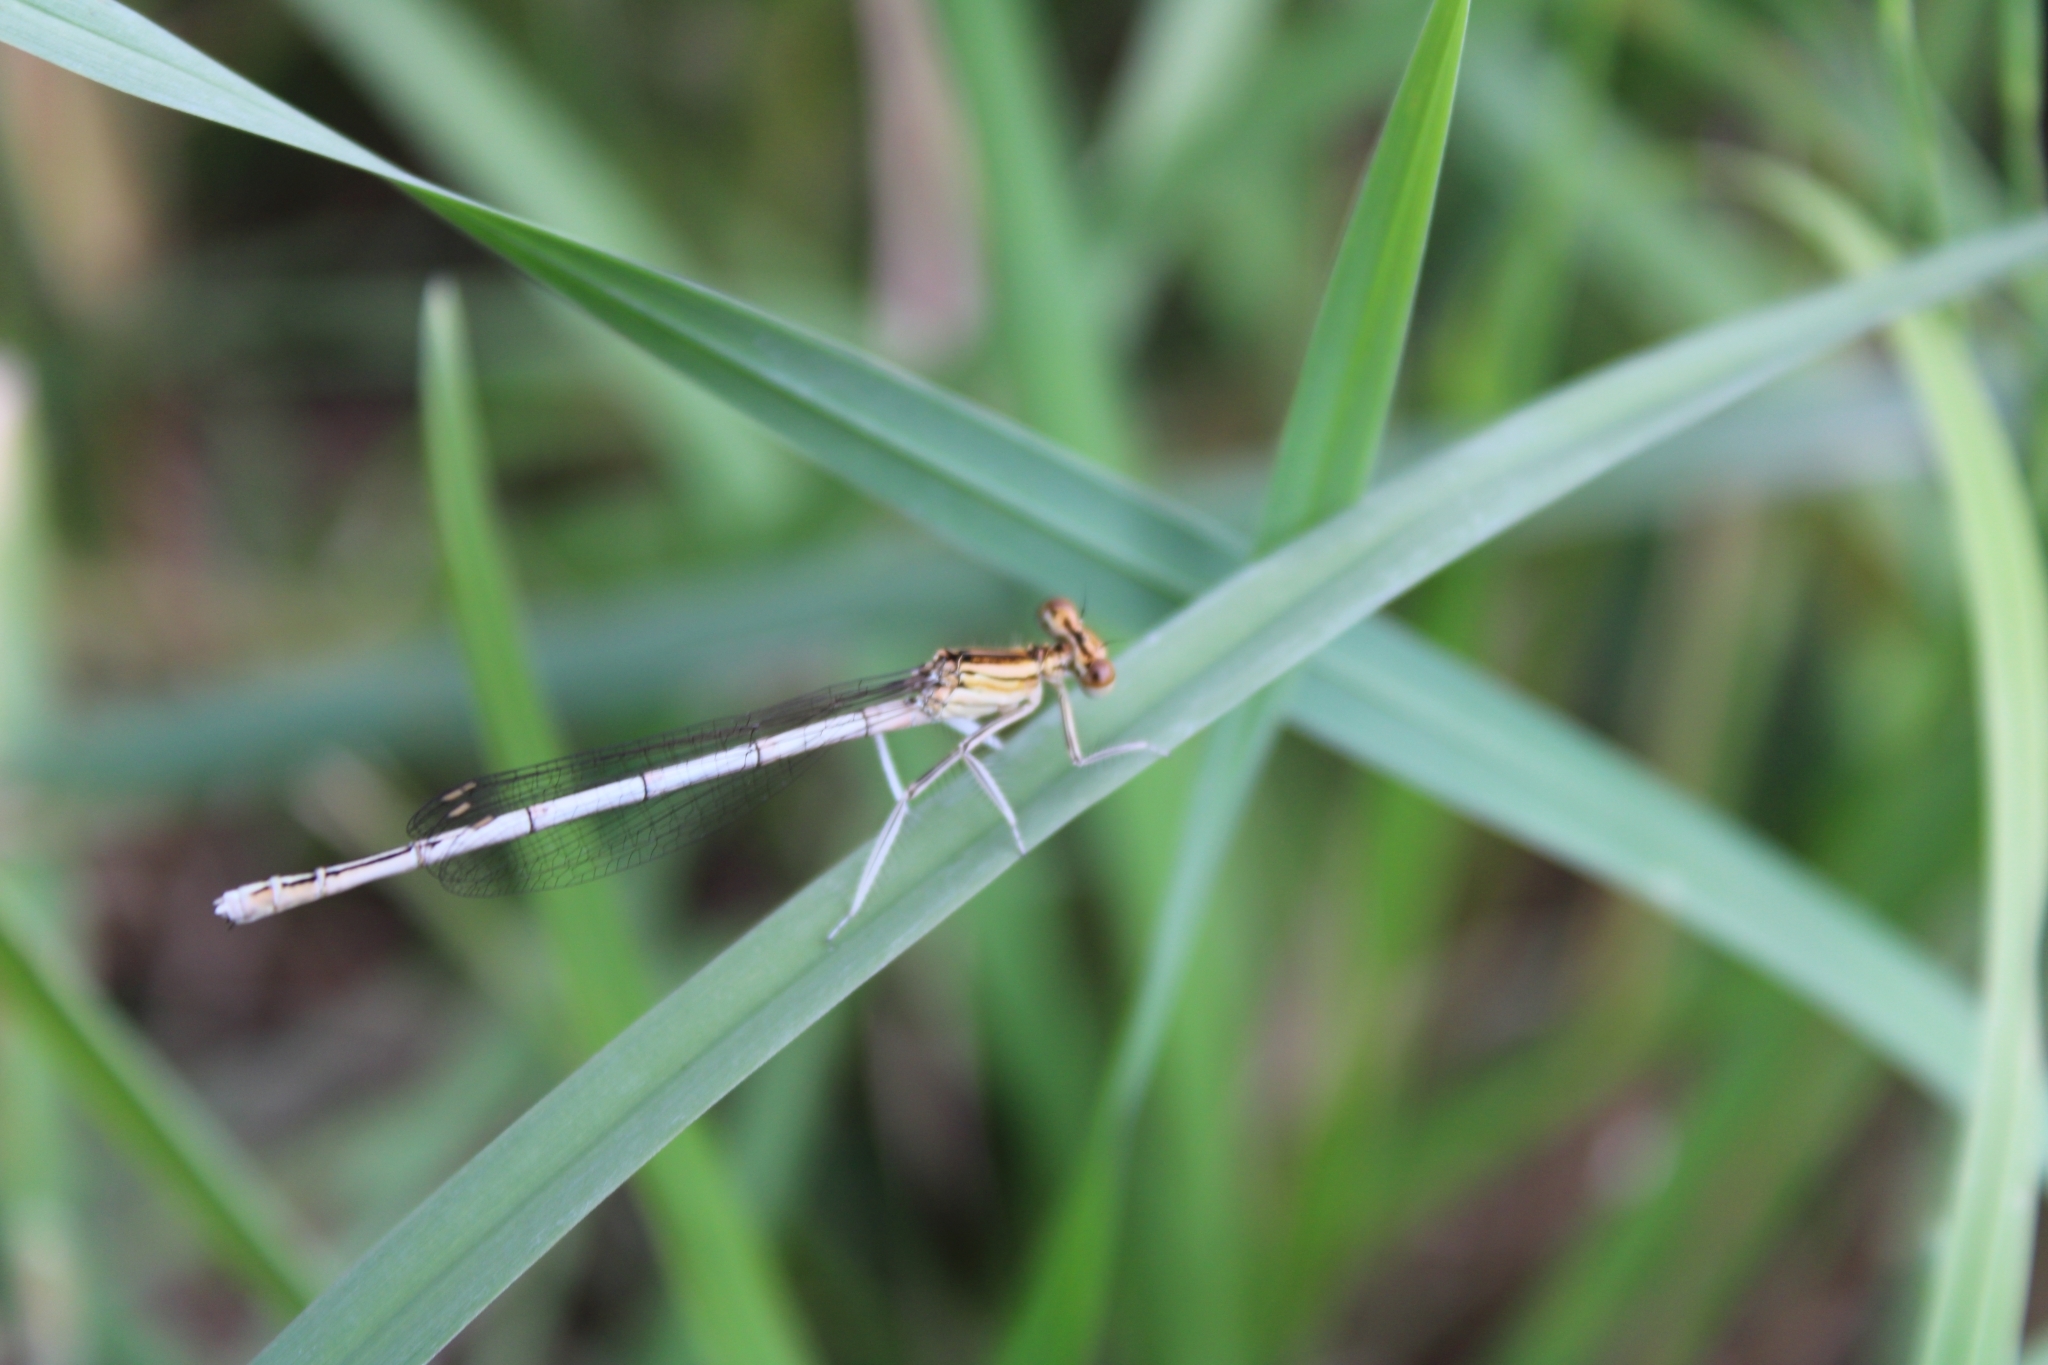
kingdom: Animalia
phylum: Arthropoda
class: Insecta
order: Odonata
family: Platycnemididae
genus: Platycnemis
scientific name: Platycnemis pennipes
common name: White-legged damselfly
